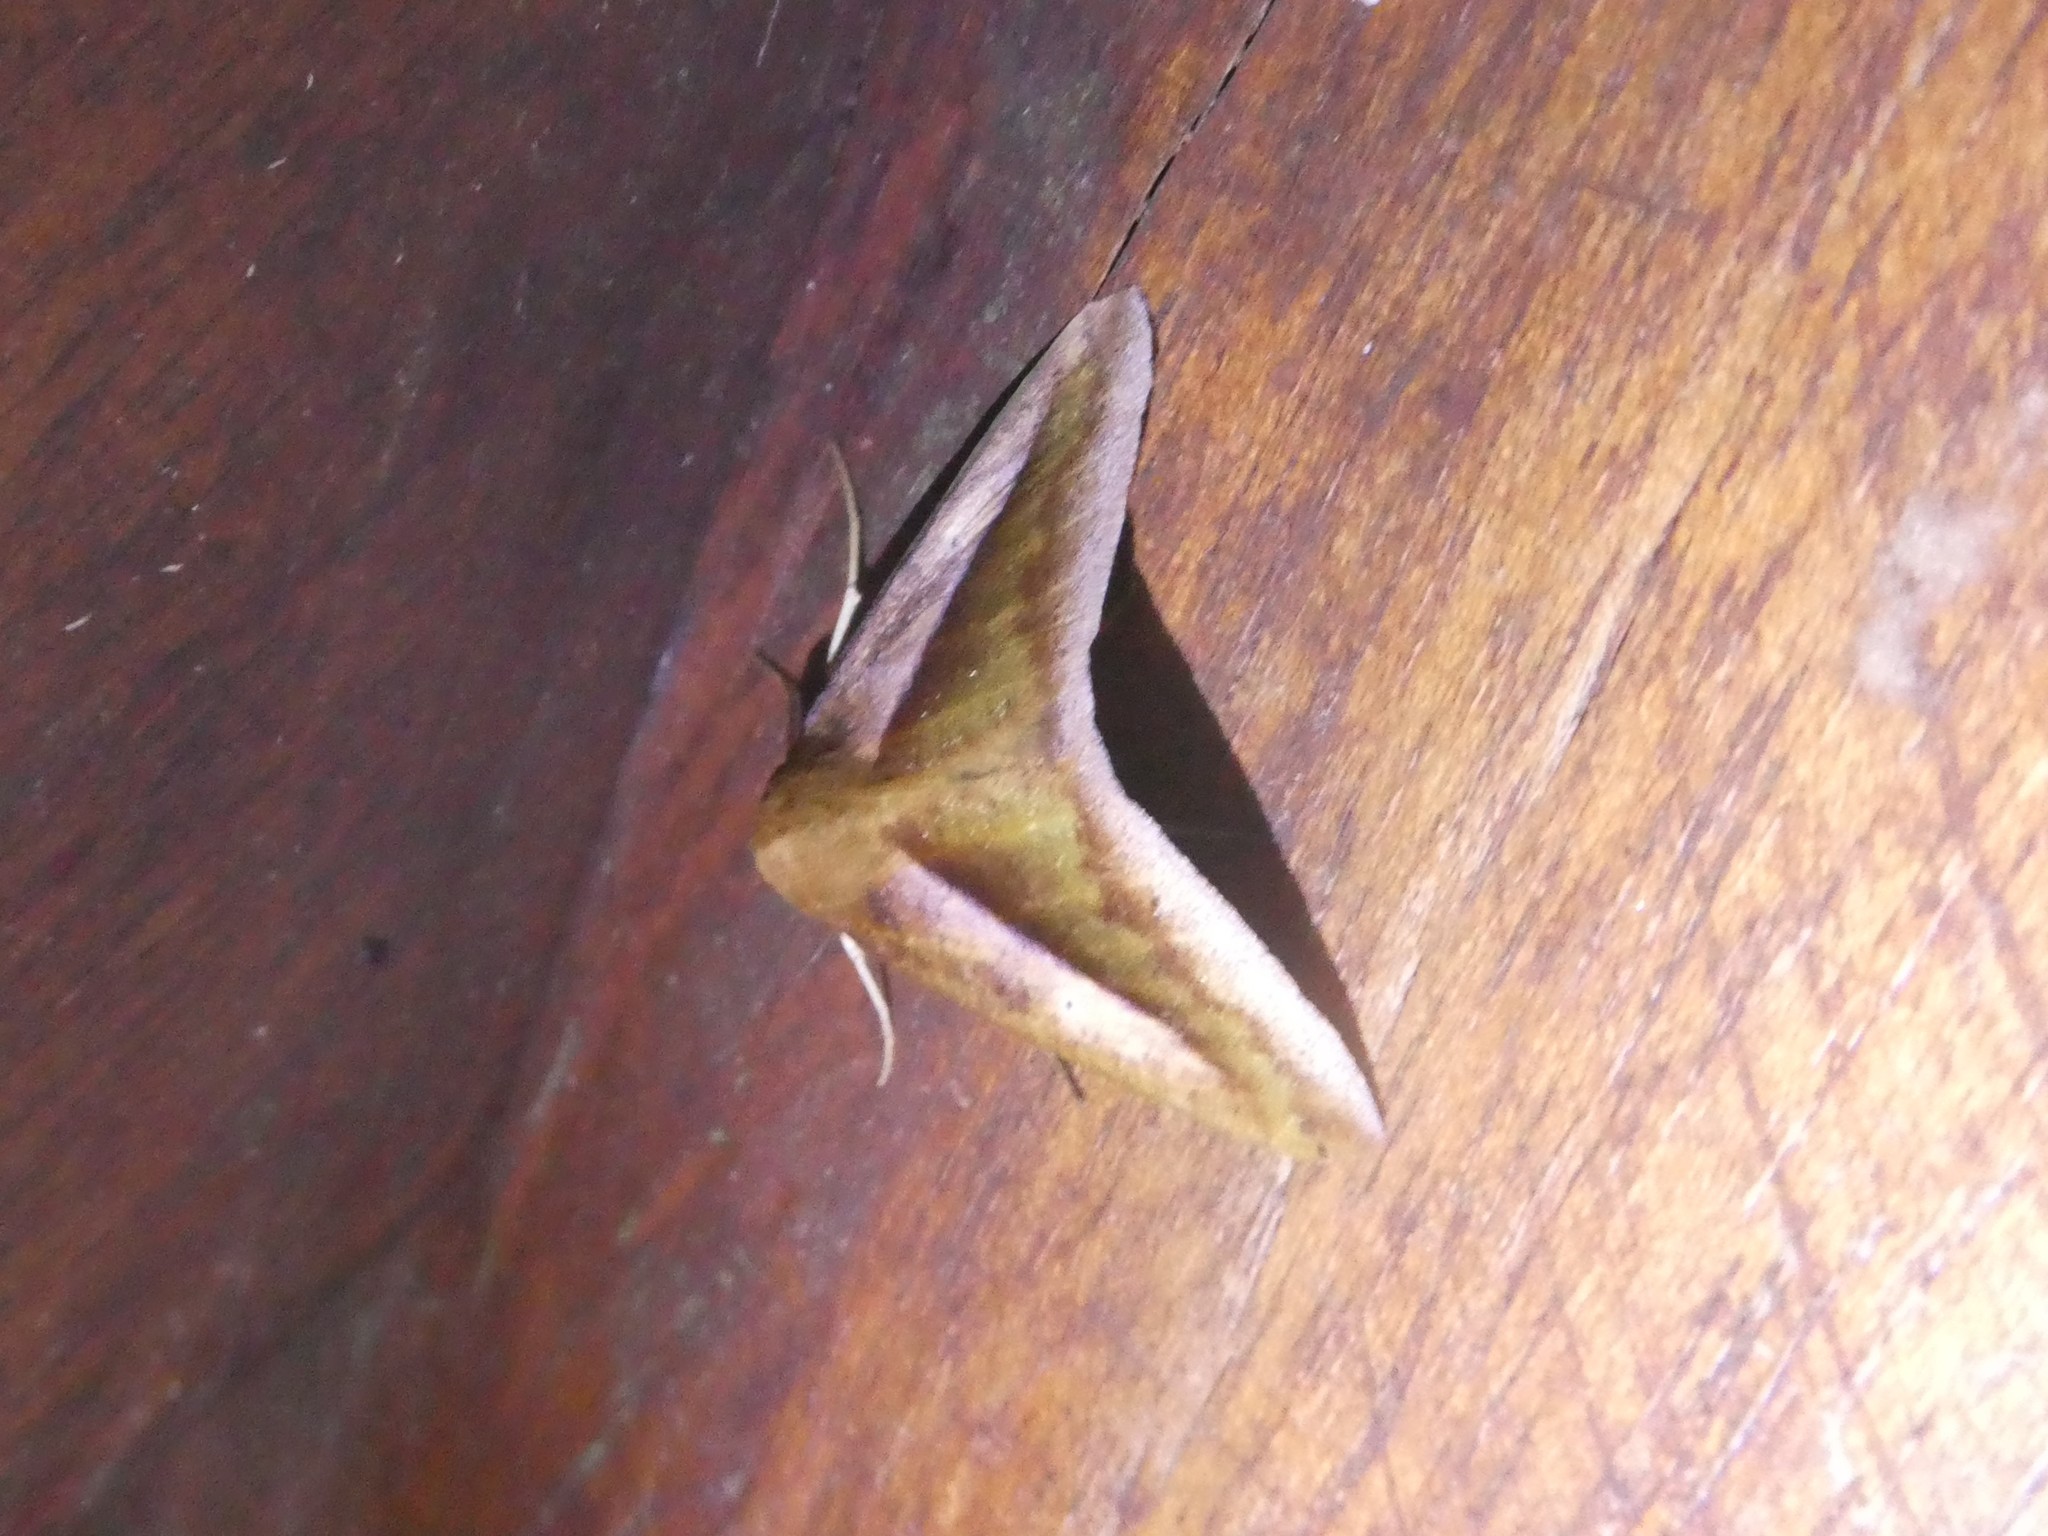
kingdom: Animalia
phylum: Arthropoda
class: Insecta
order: Lepidoptera
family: Geometridae
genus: Bassania
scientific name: Bassania olivacea
